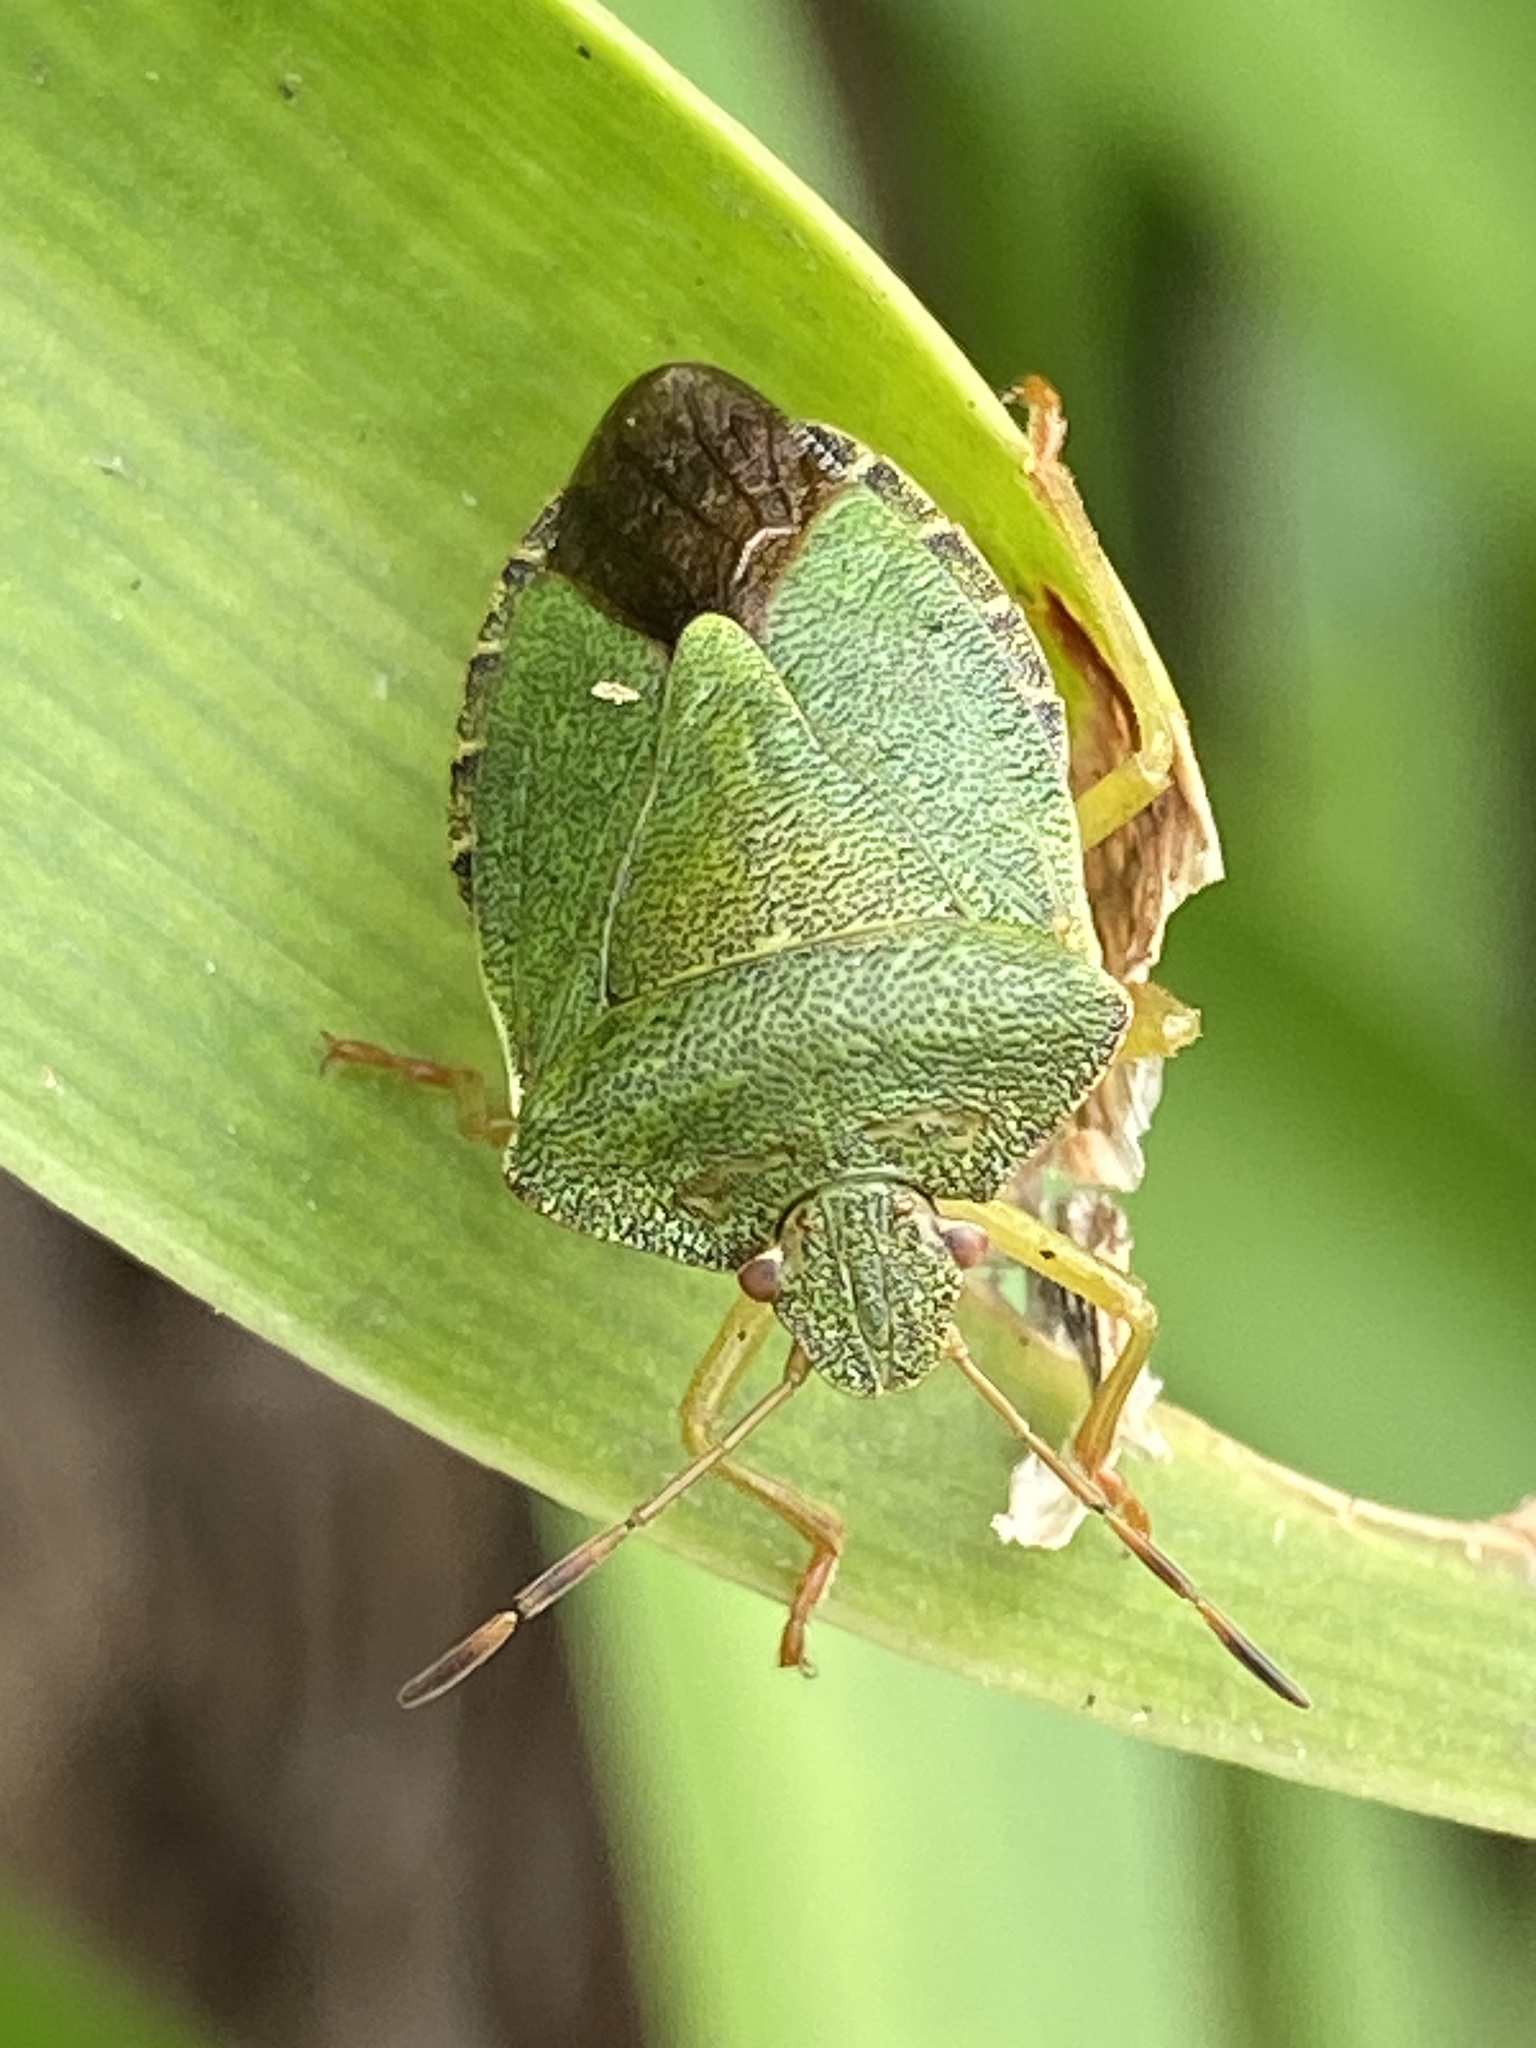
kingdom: Animalia
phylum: Arthropoda
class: Insecta
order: Hemiptera
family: Pentatomidae
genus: Palomena
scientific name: Palomena prasina
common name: Green shieldbug
